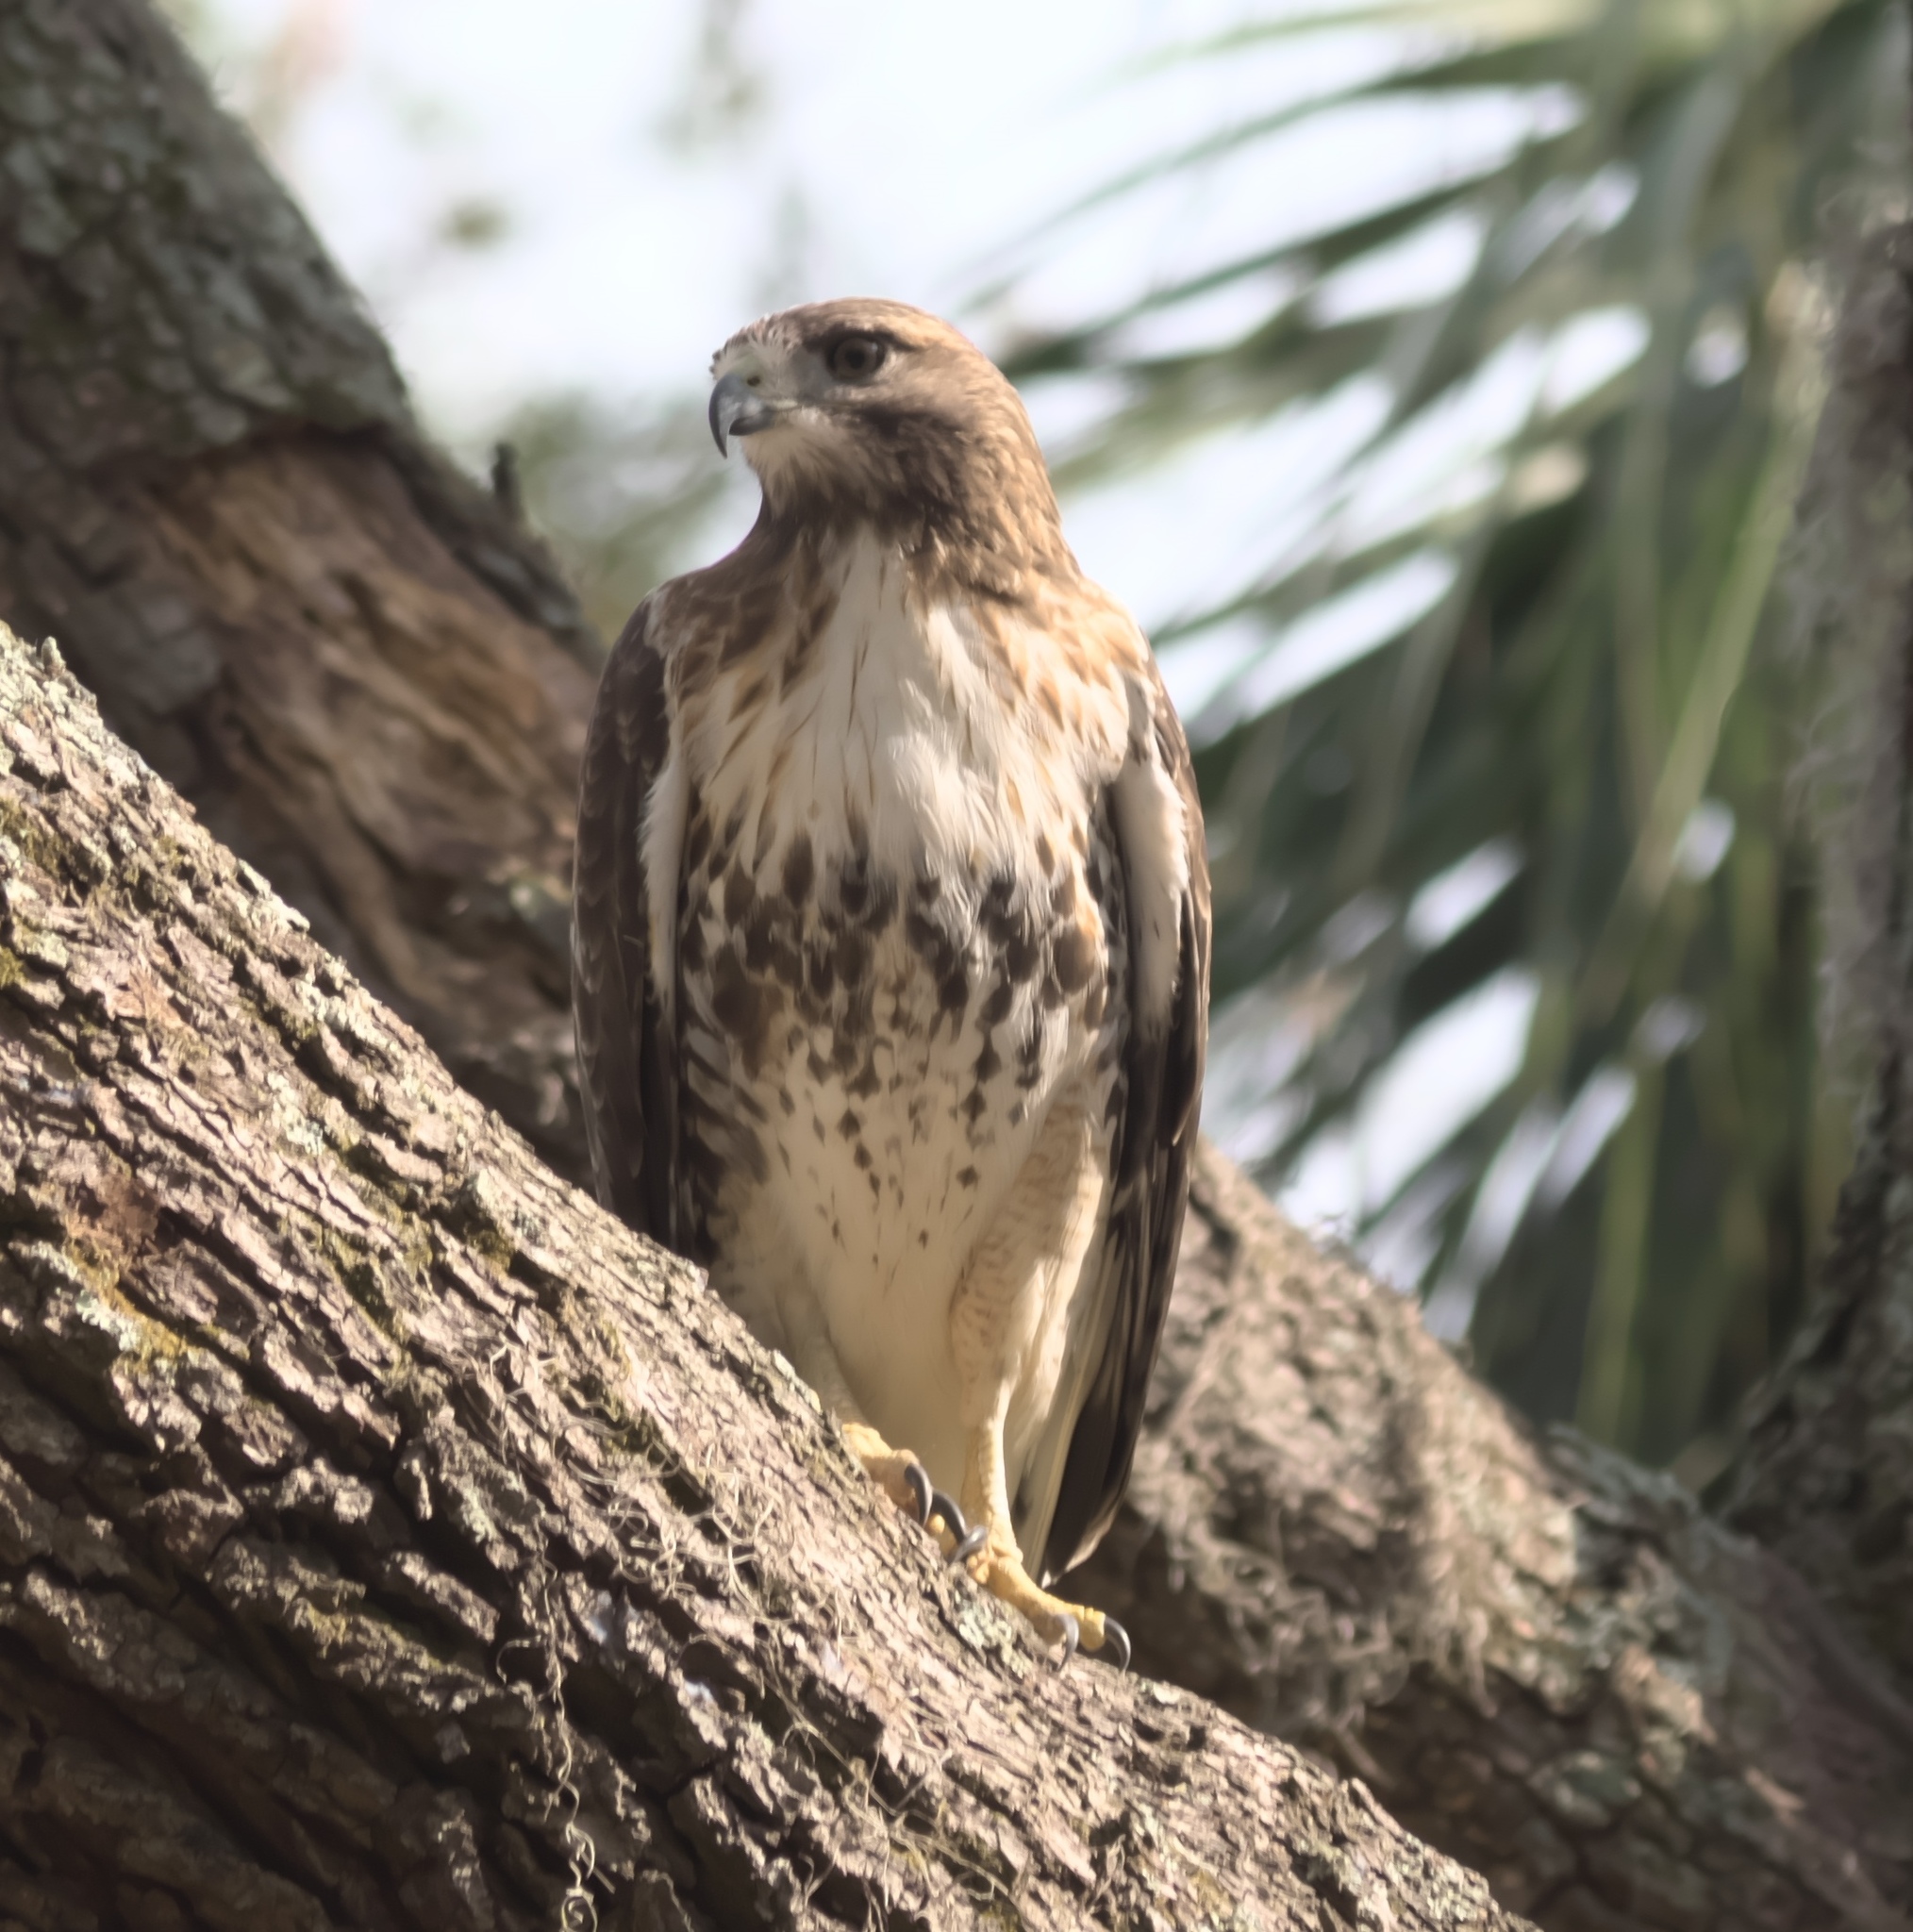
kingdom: Animalia
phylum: Chordata
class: Aves
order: Accipitriformes
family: Accipitridae
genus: Buteo
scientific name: Buteo jamaicensis
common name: Red-tailed hawk
